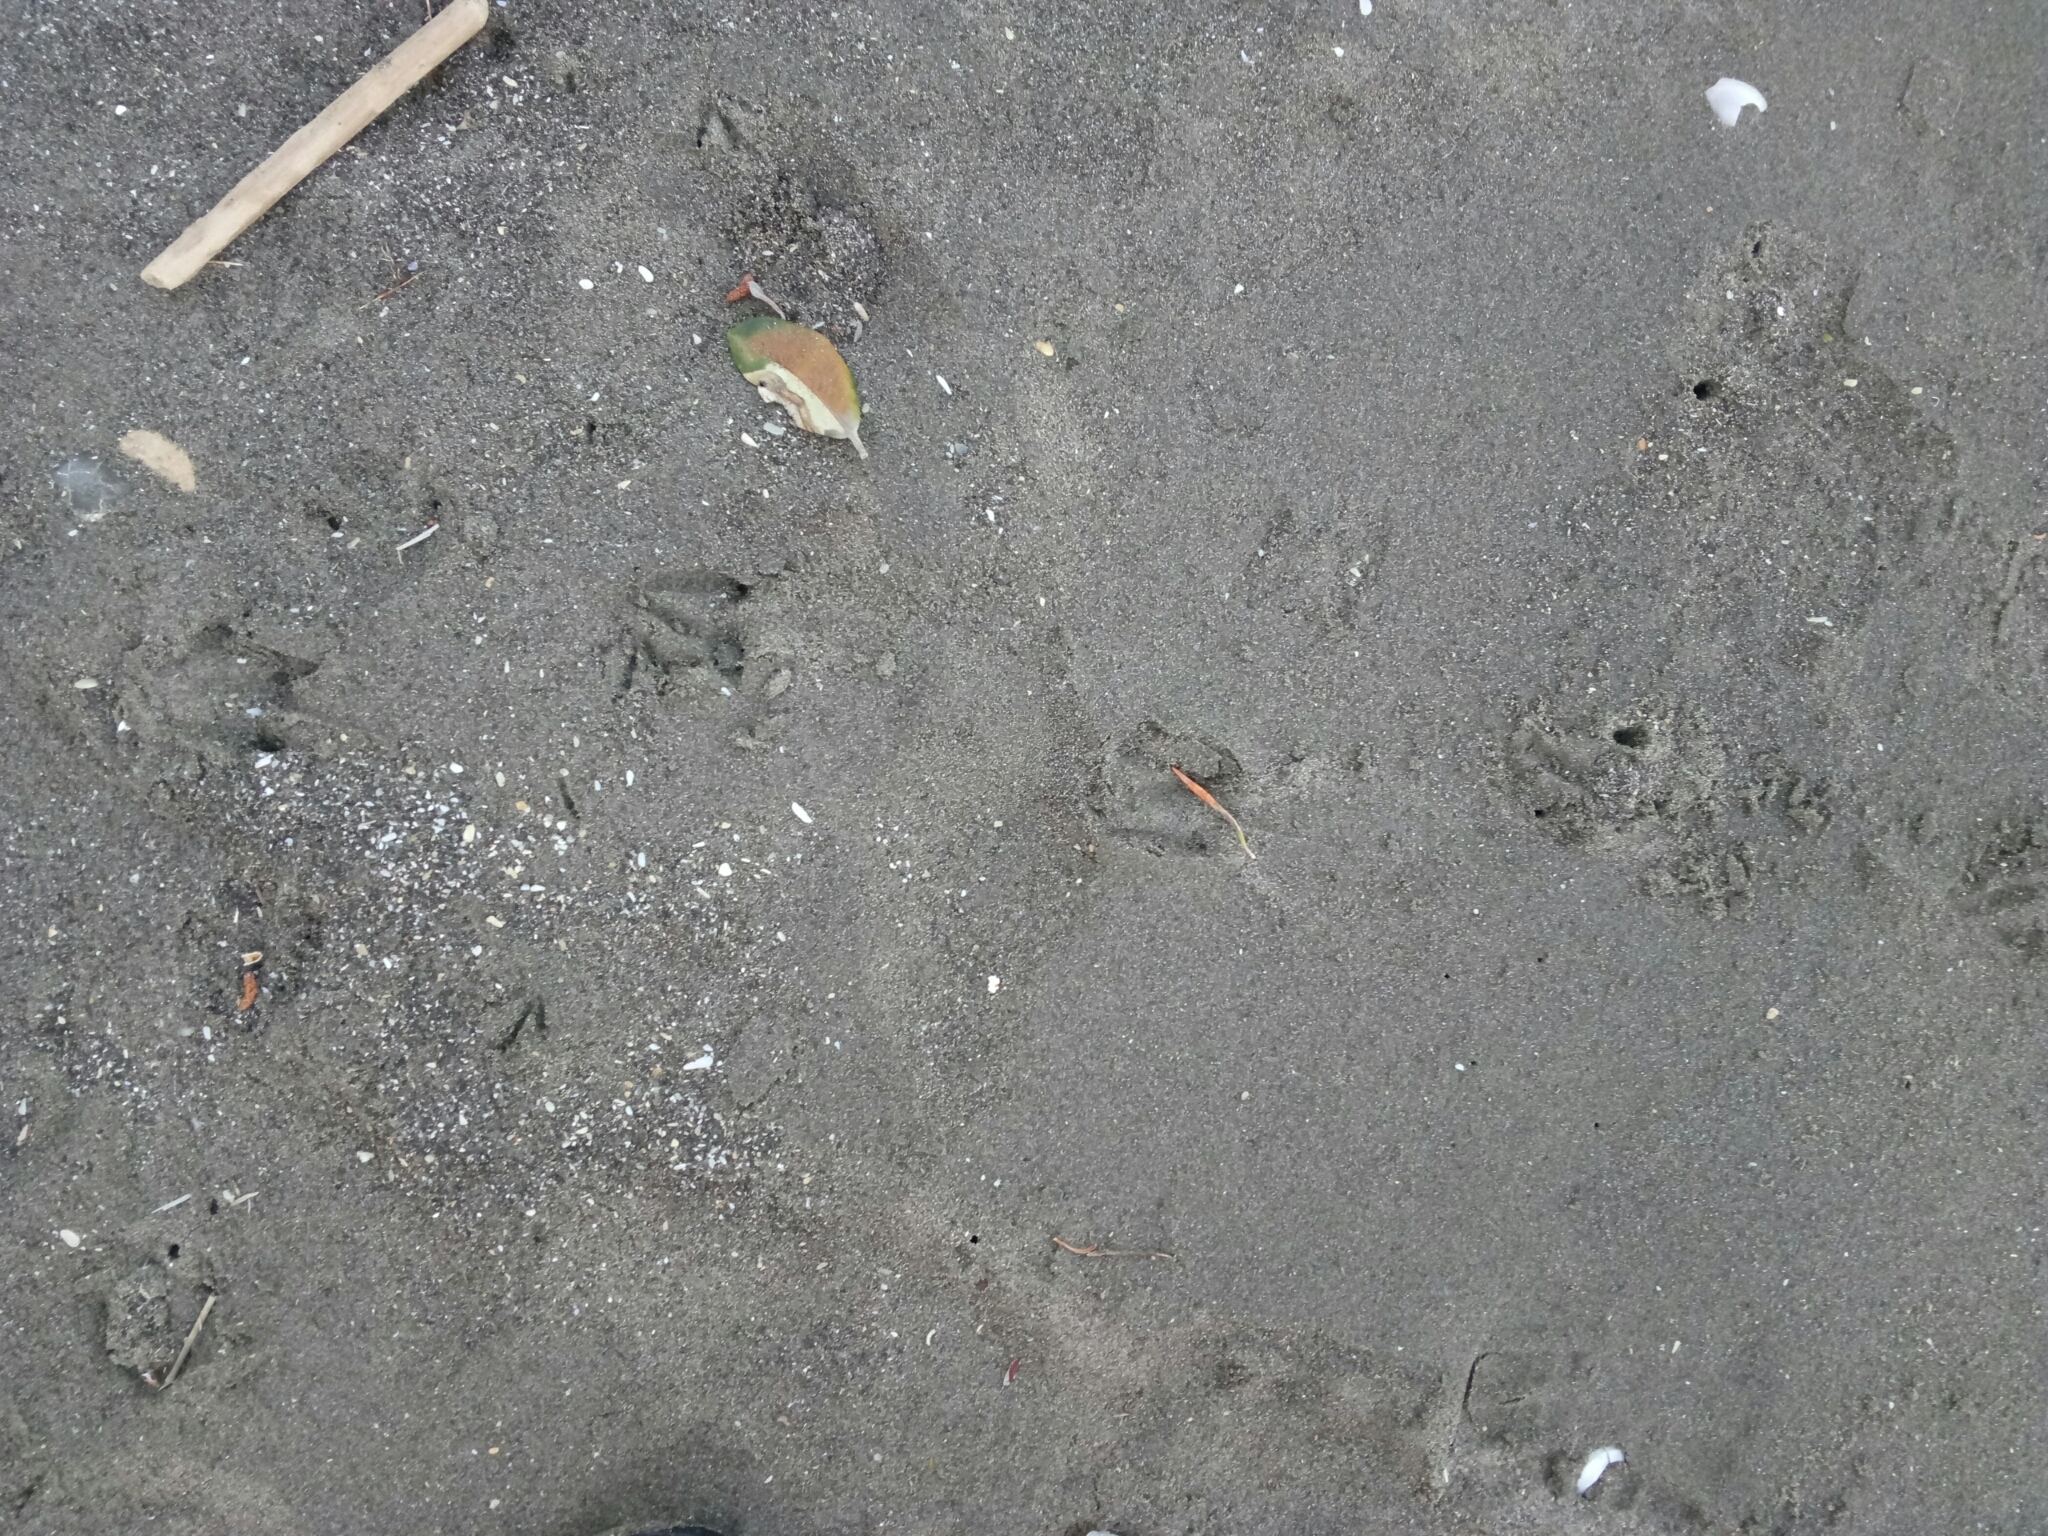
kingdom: Animalia
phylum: Chordata
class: Aves
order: Sphenisciformes
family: Spheniscidae
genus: Eudyptula
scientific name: Eudyptula minor
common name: Little penguin
